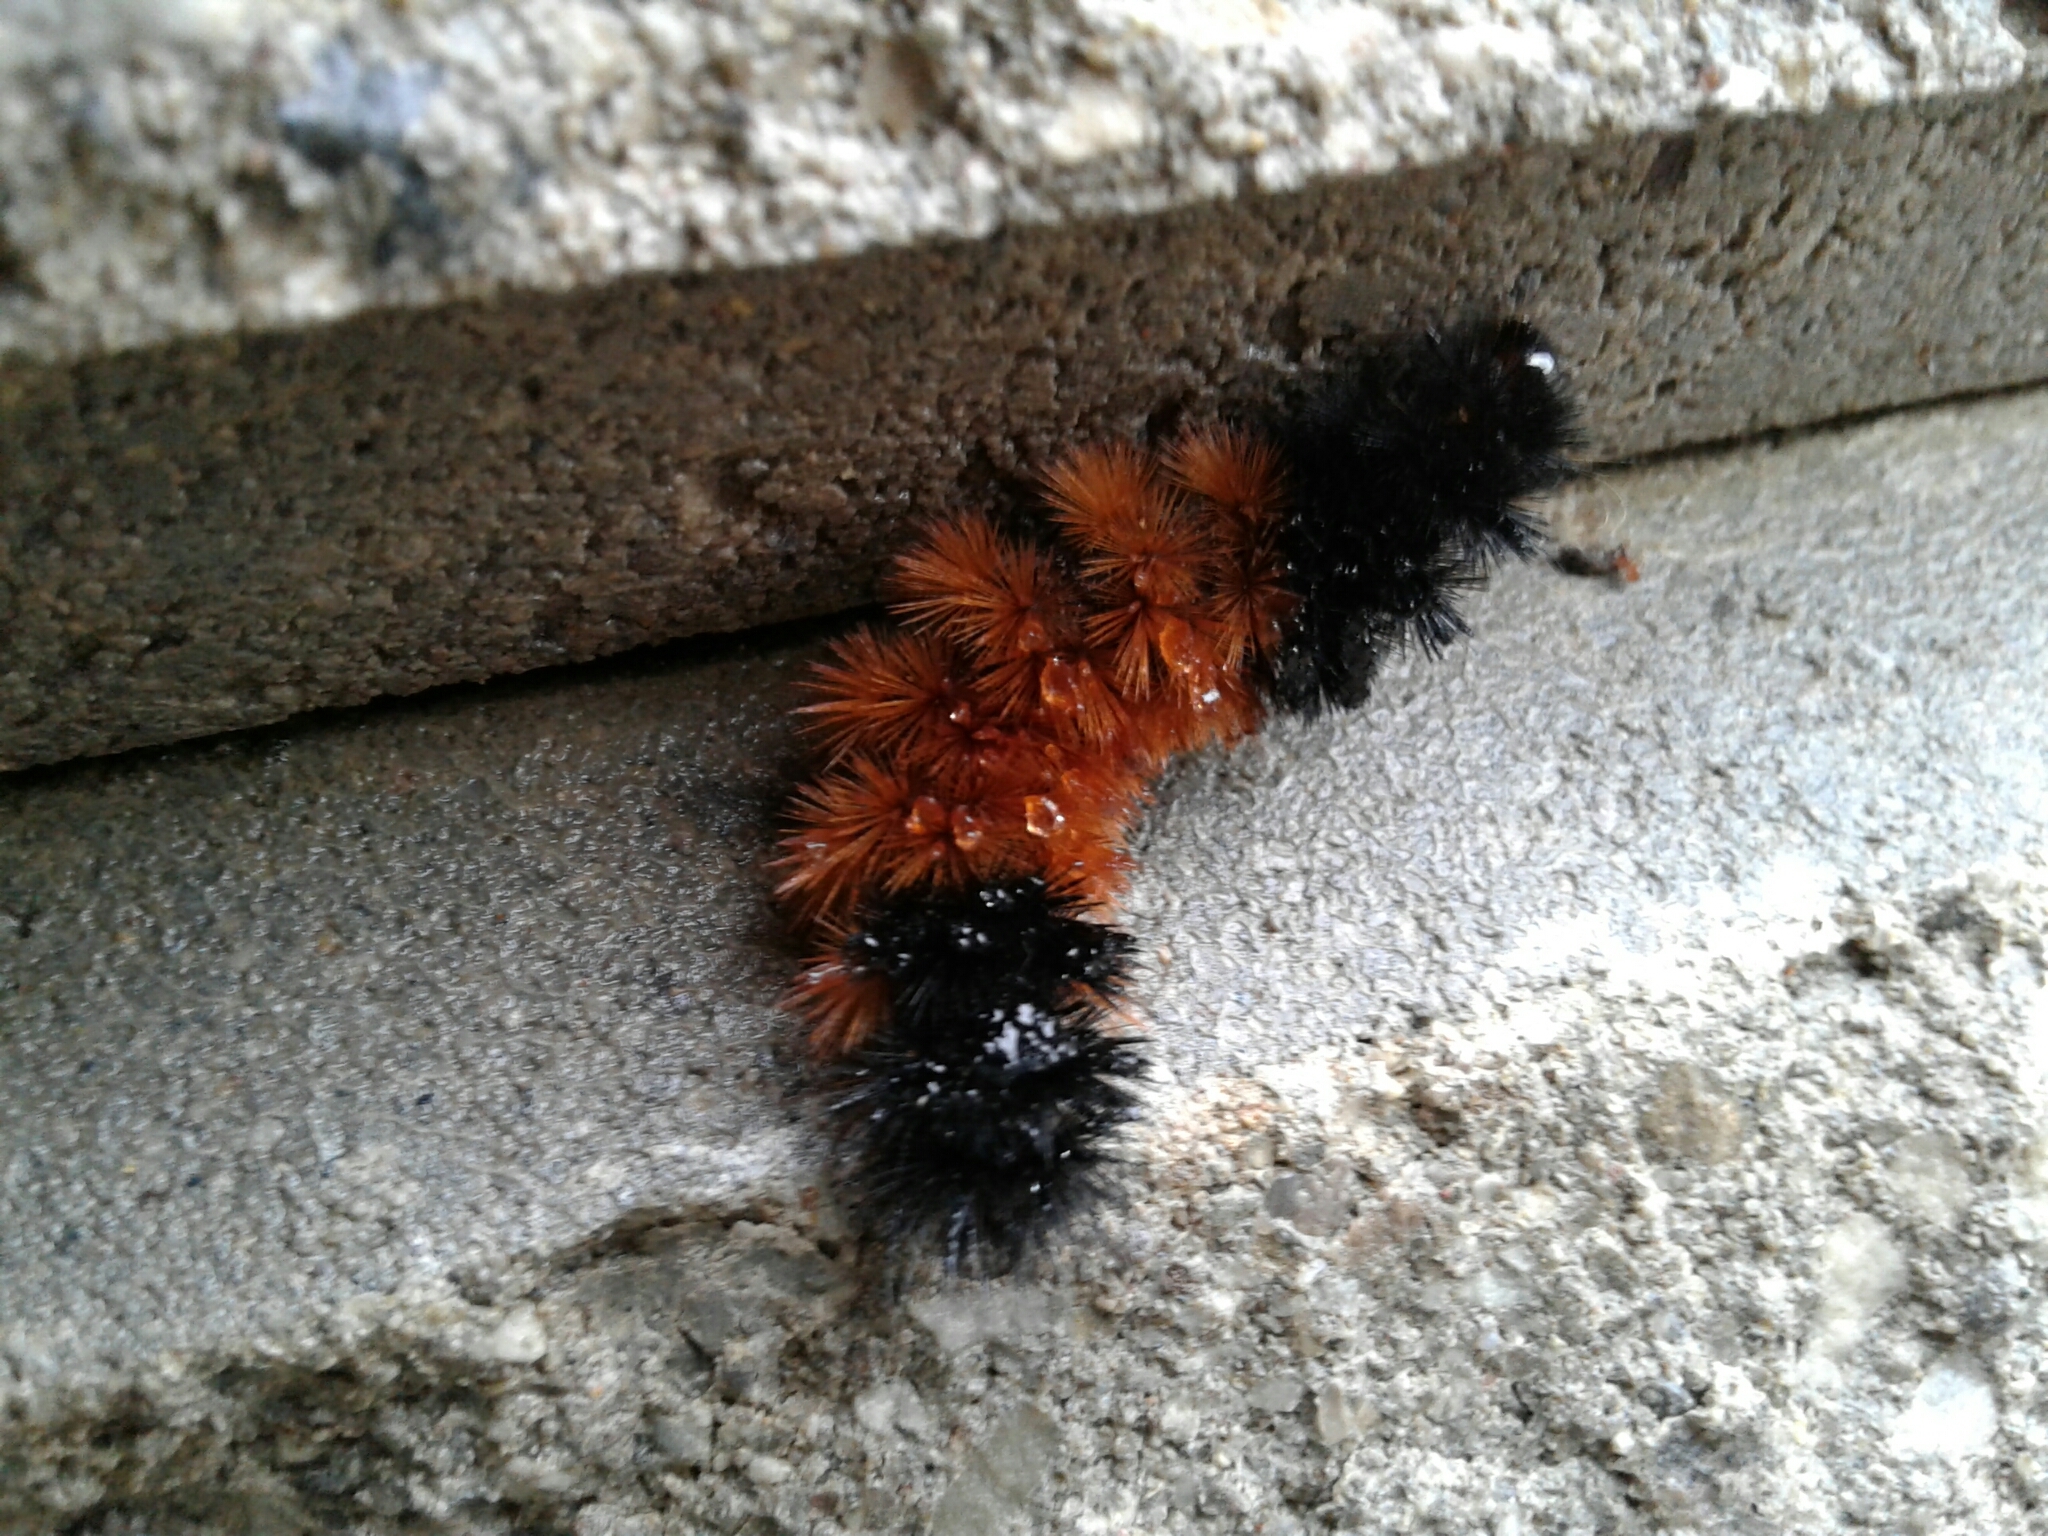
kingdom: Animalia
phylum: Arthropoda
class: Insecta
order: Lepidoptera
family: Erebidae
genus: Pyrrharctia
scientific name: Pyrrharctia isabella
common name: Isabella tiger moth
